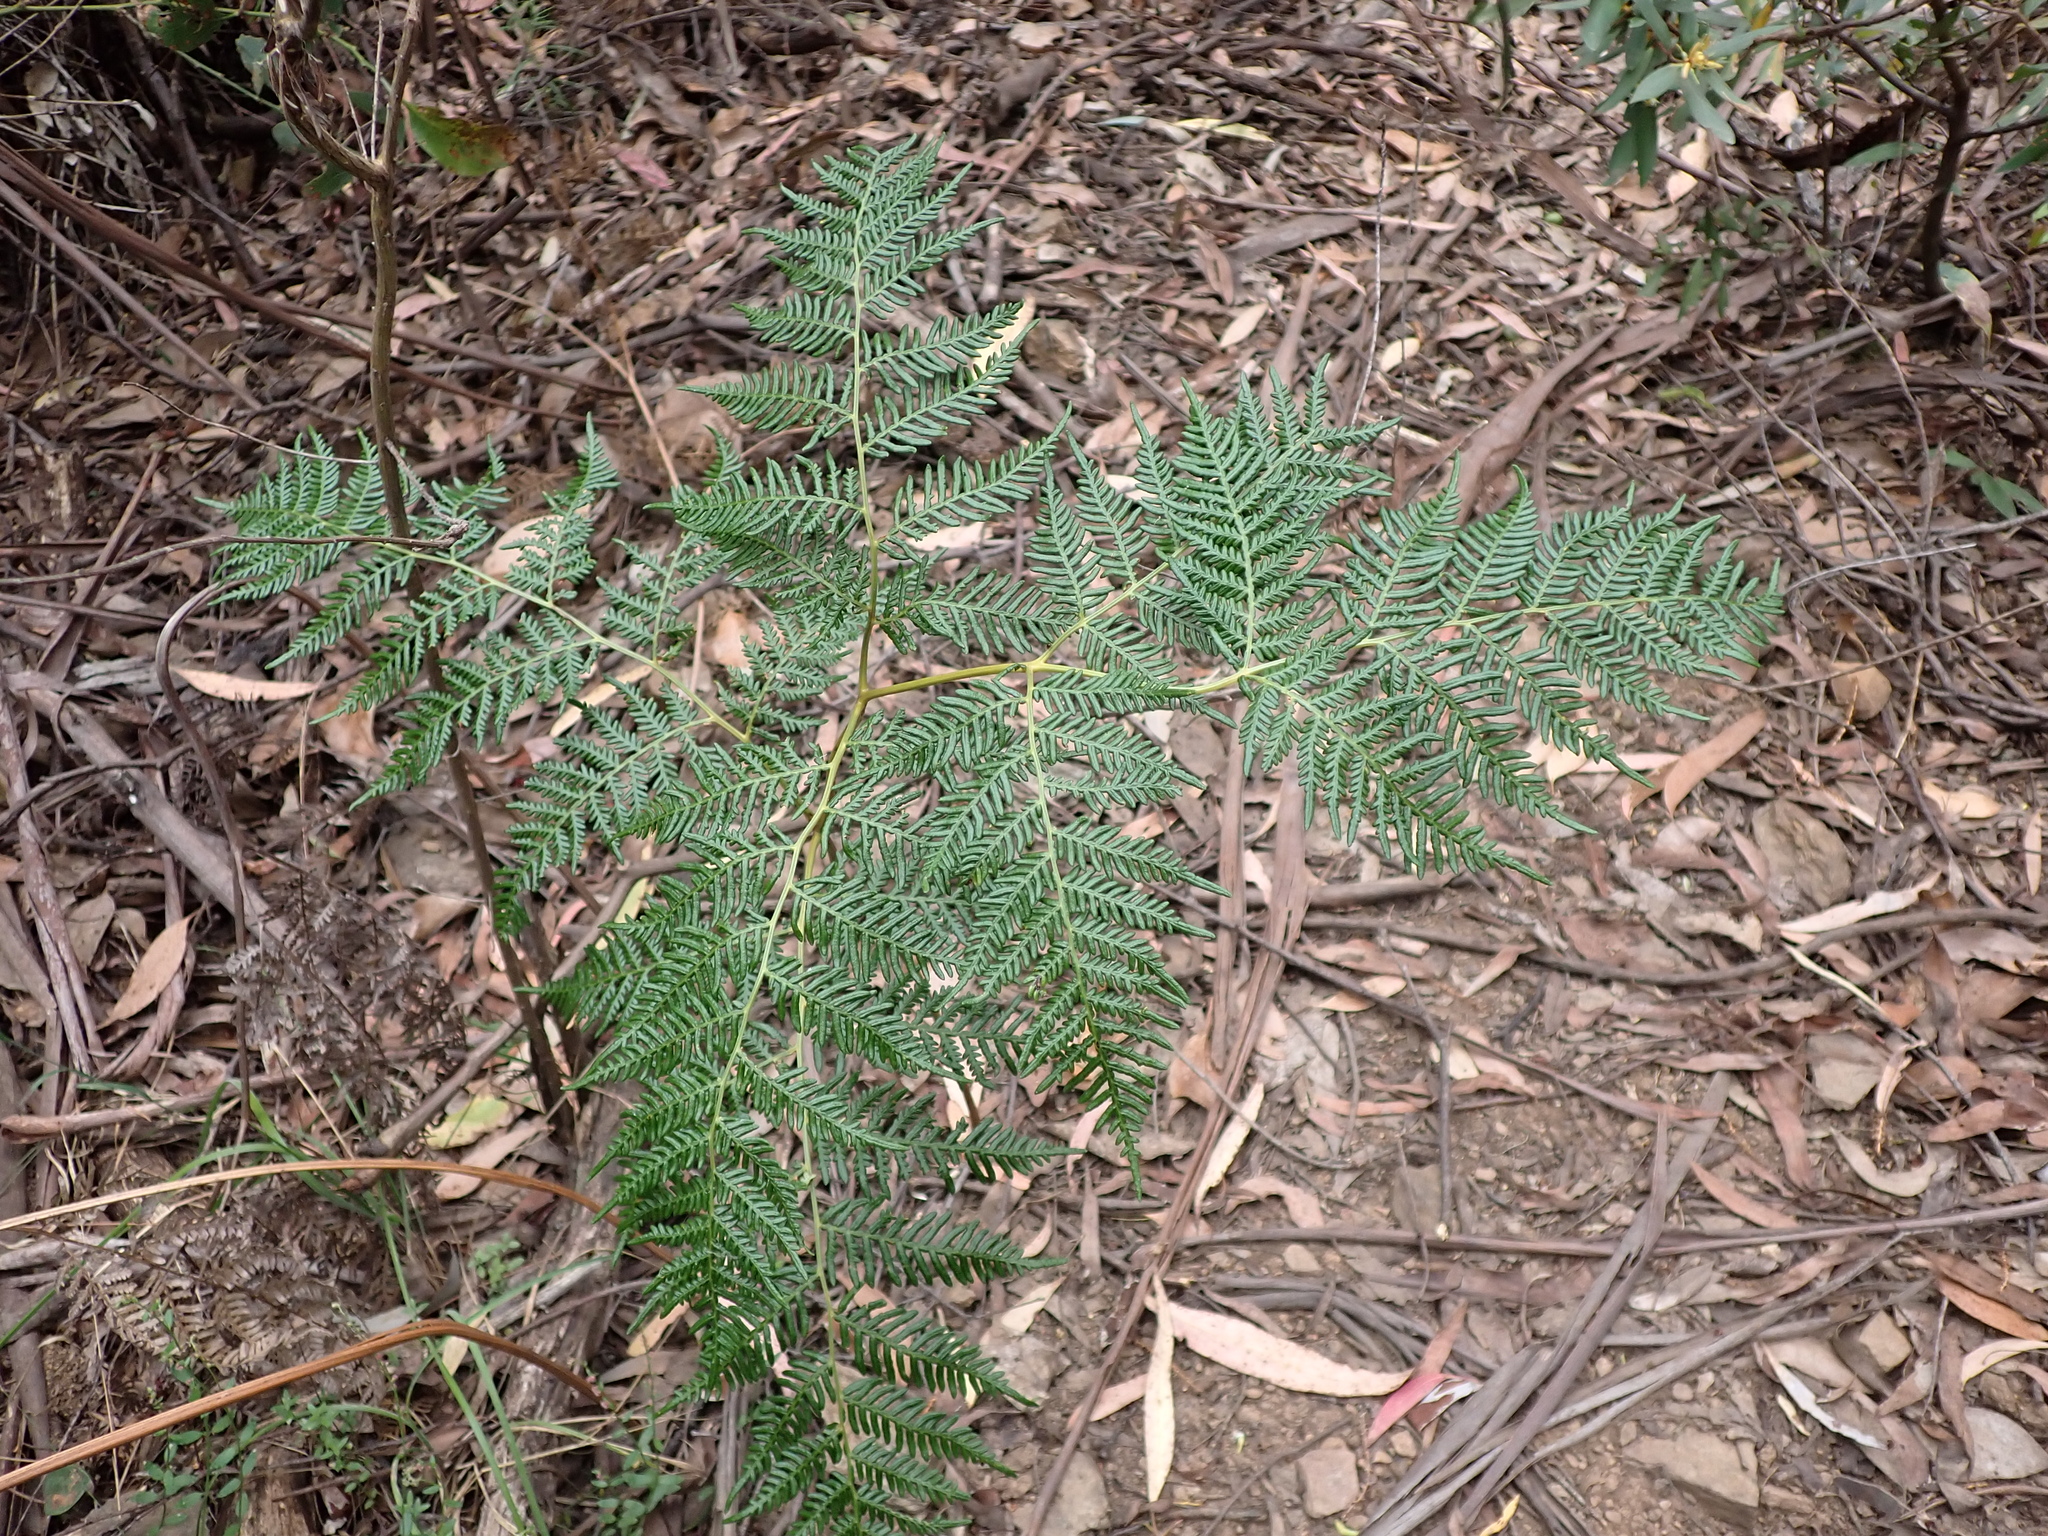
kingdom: Plantae
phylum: Tracheophyta
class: Polypodiopsida
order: Polypodiales
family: Dennstaedtiaceae
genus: Pteridium
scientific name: Pteridium esculentum
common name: Bracken fern
